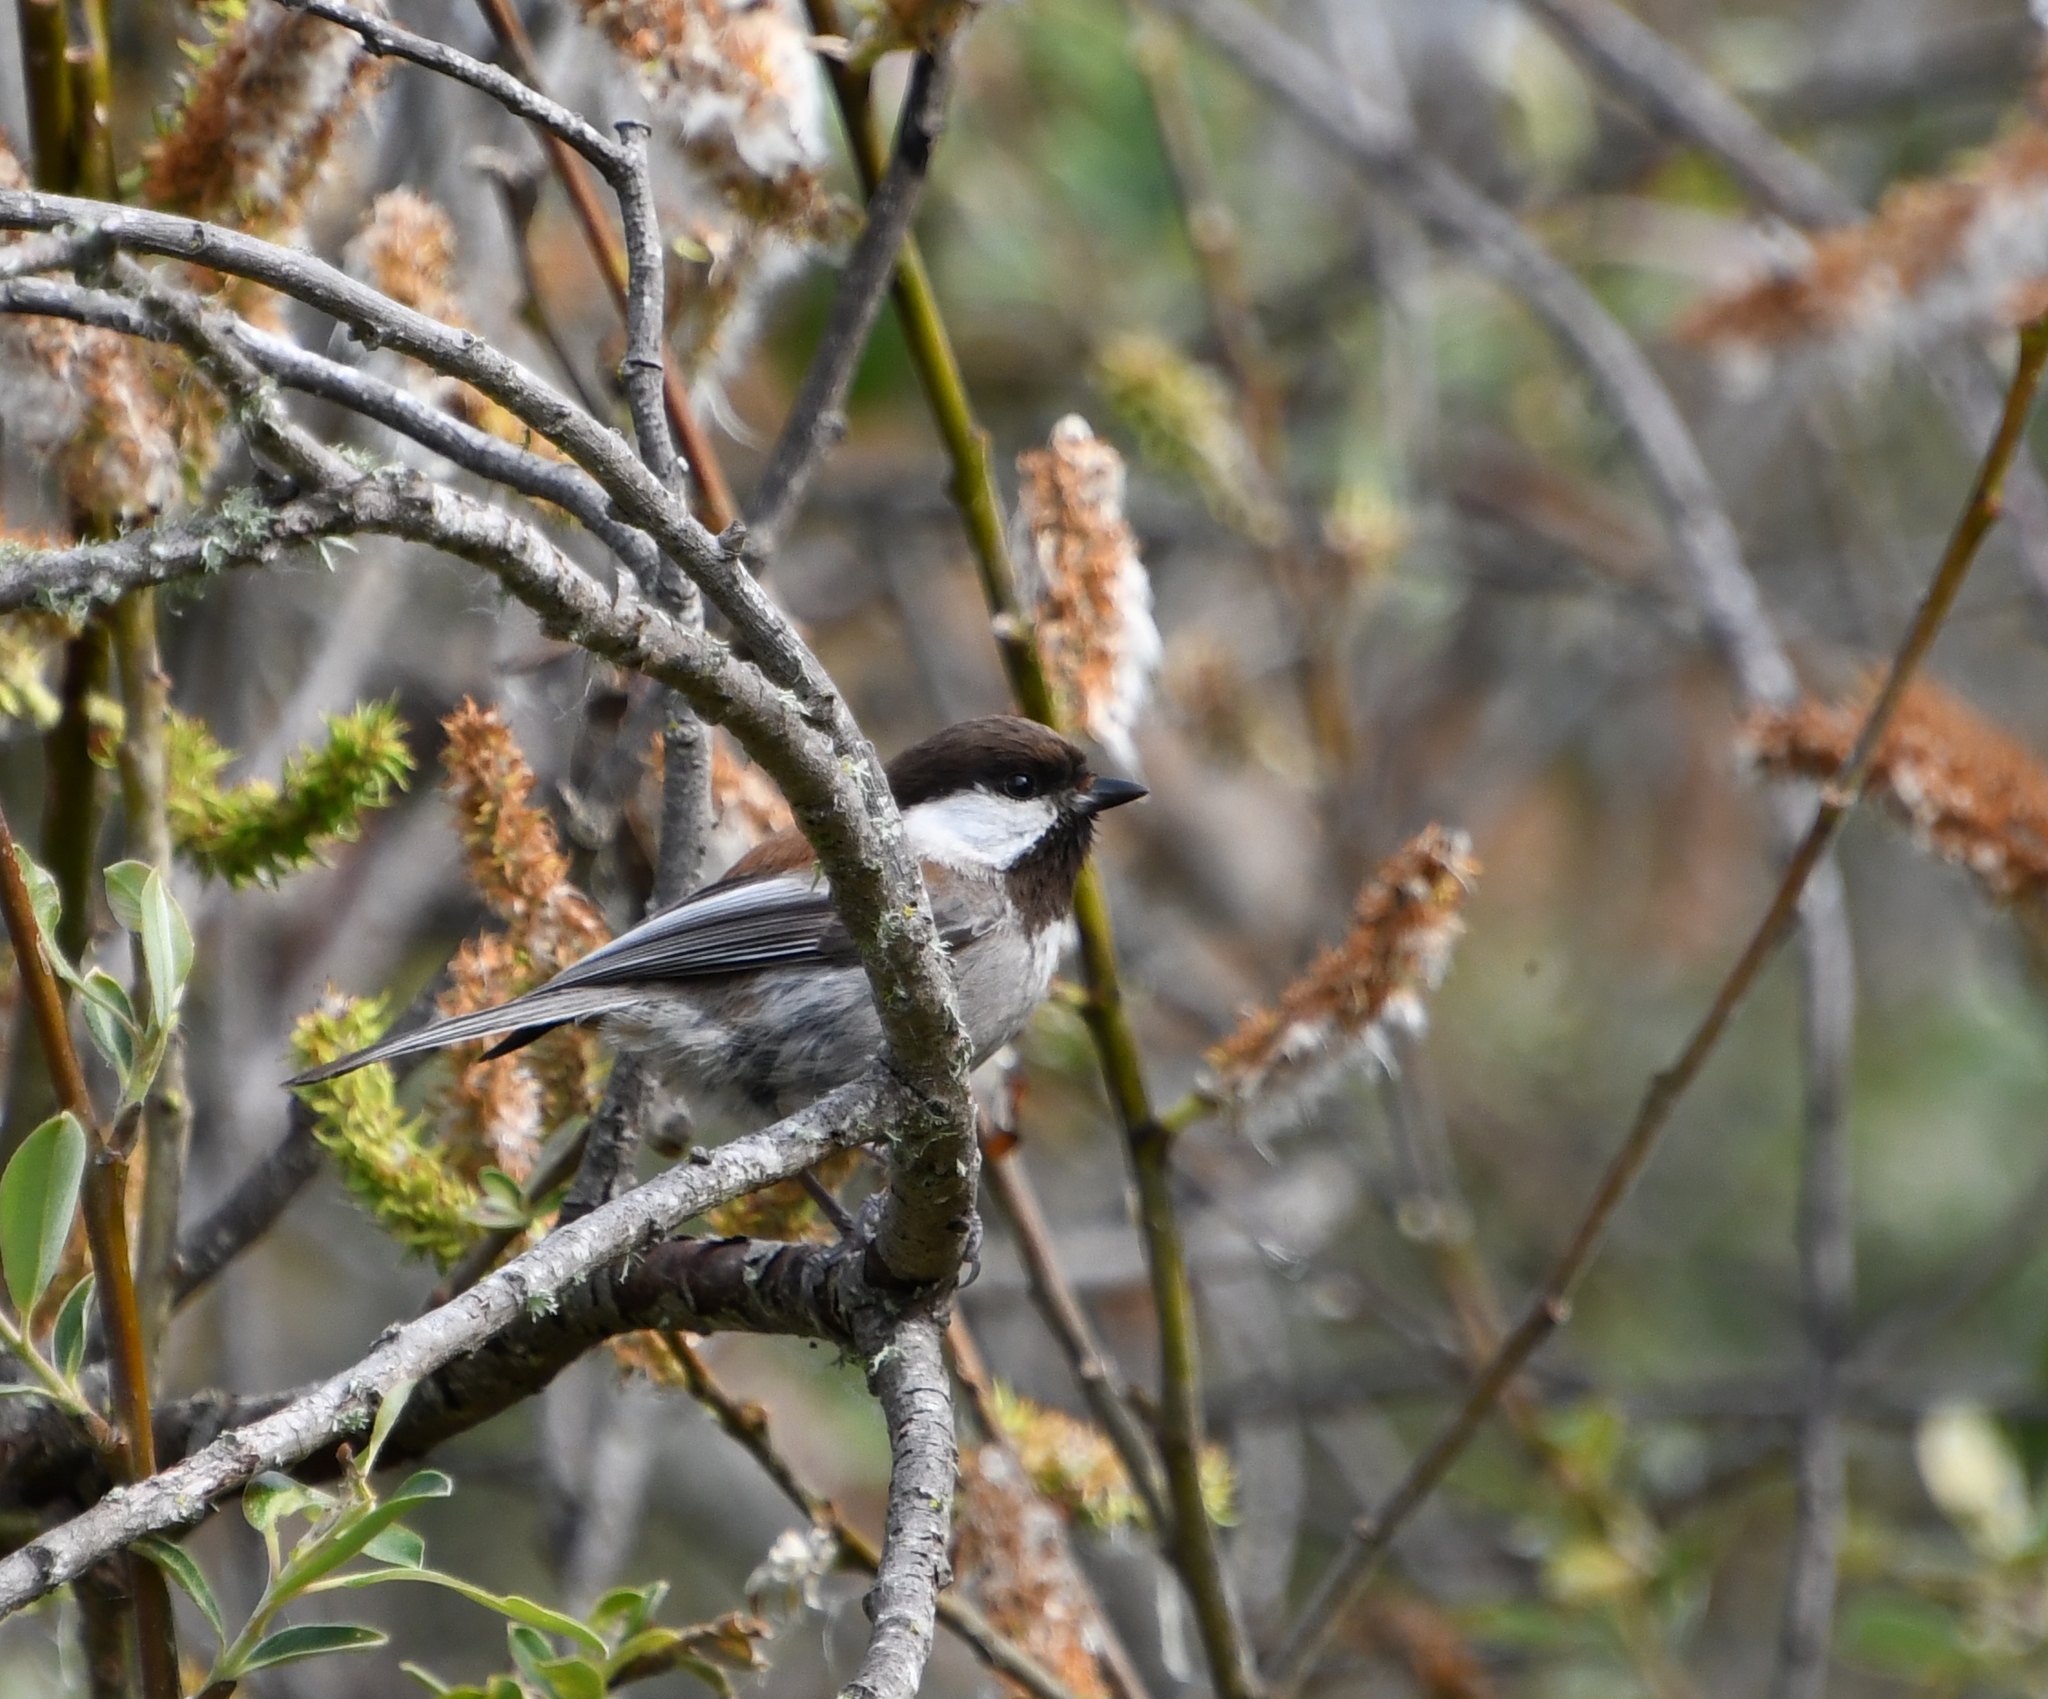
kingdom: Animalia
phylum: Chordata
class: Aves
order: Passeriformes
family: Paridae
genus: Poecile
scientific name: Poecile rufescens
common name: Chestnut-backed chickadee
